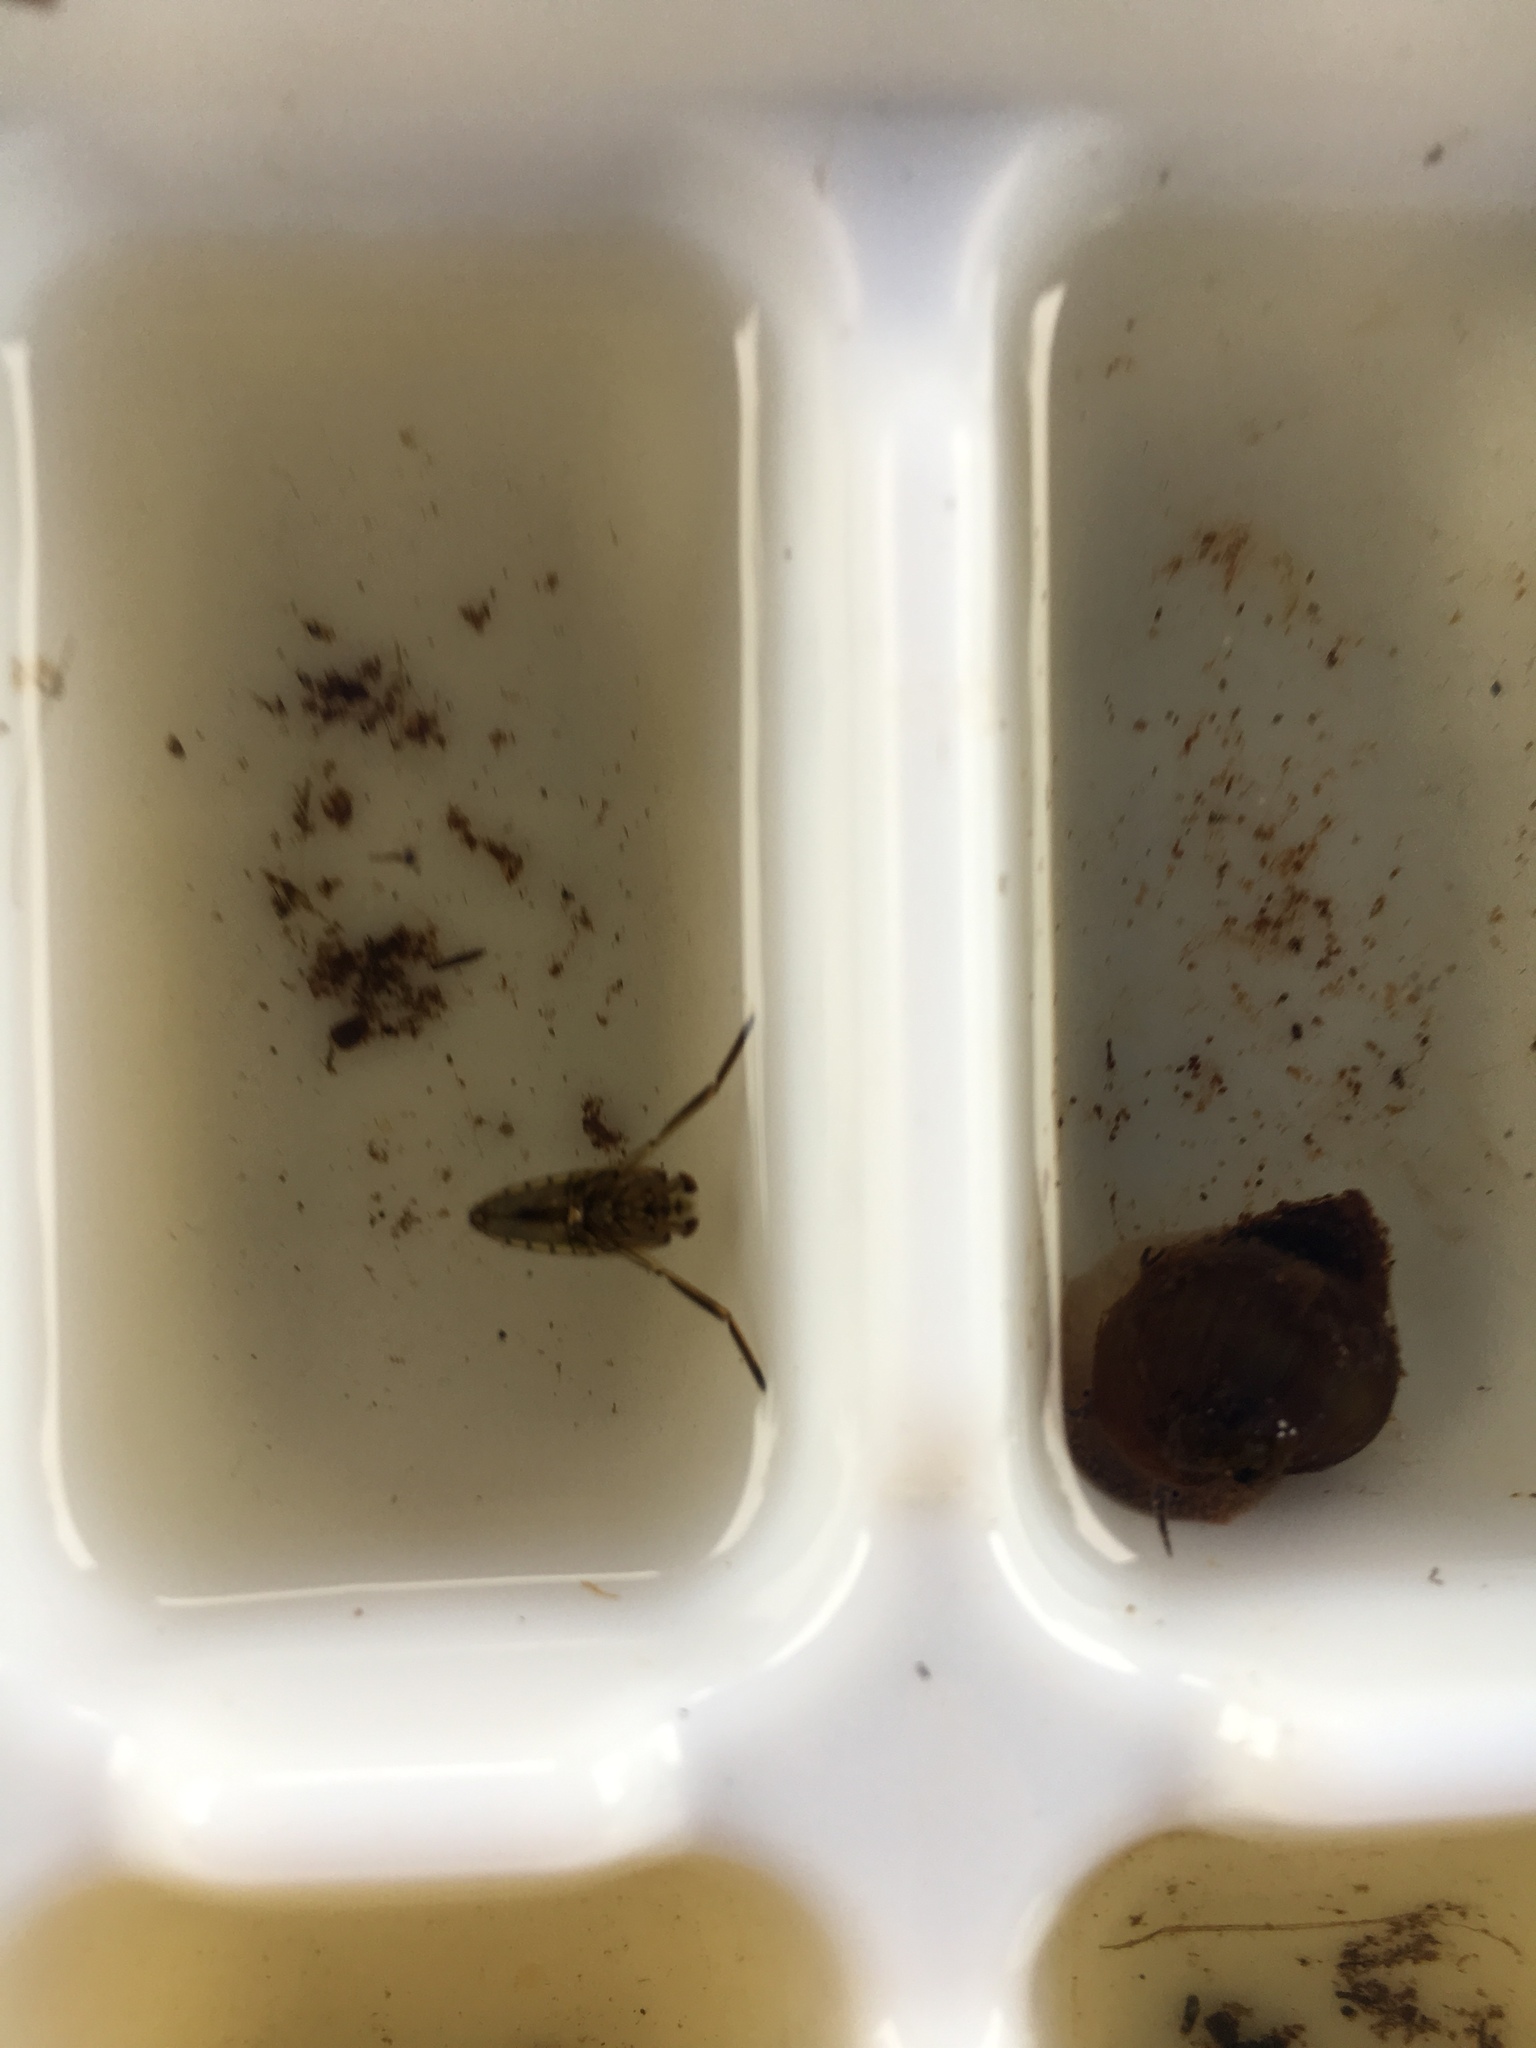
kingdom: Animalia
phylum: Arthropoda
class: Insecta
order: Hemiptera
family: Notonectidae
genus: Notonecta
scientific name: Notonecta
